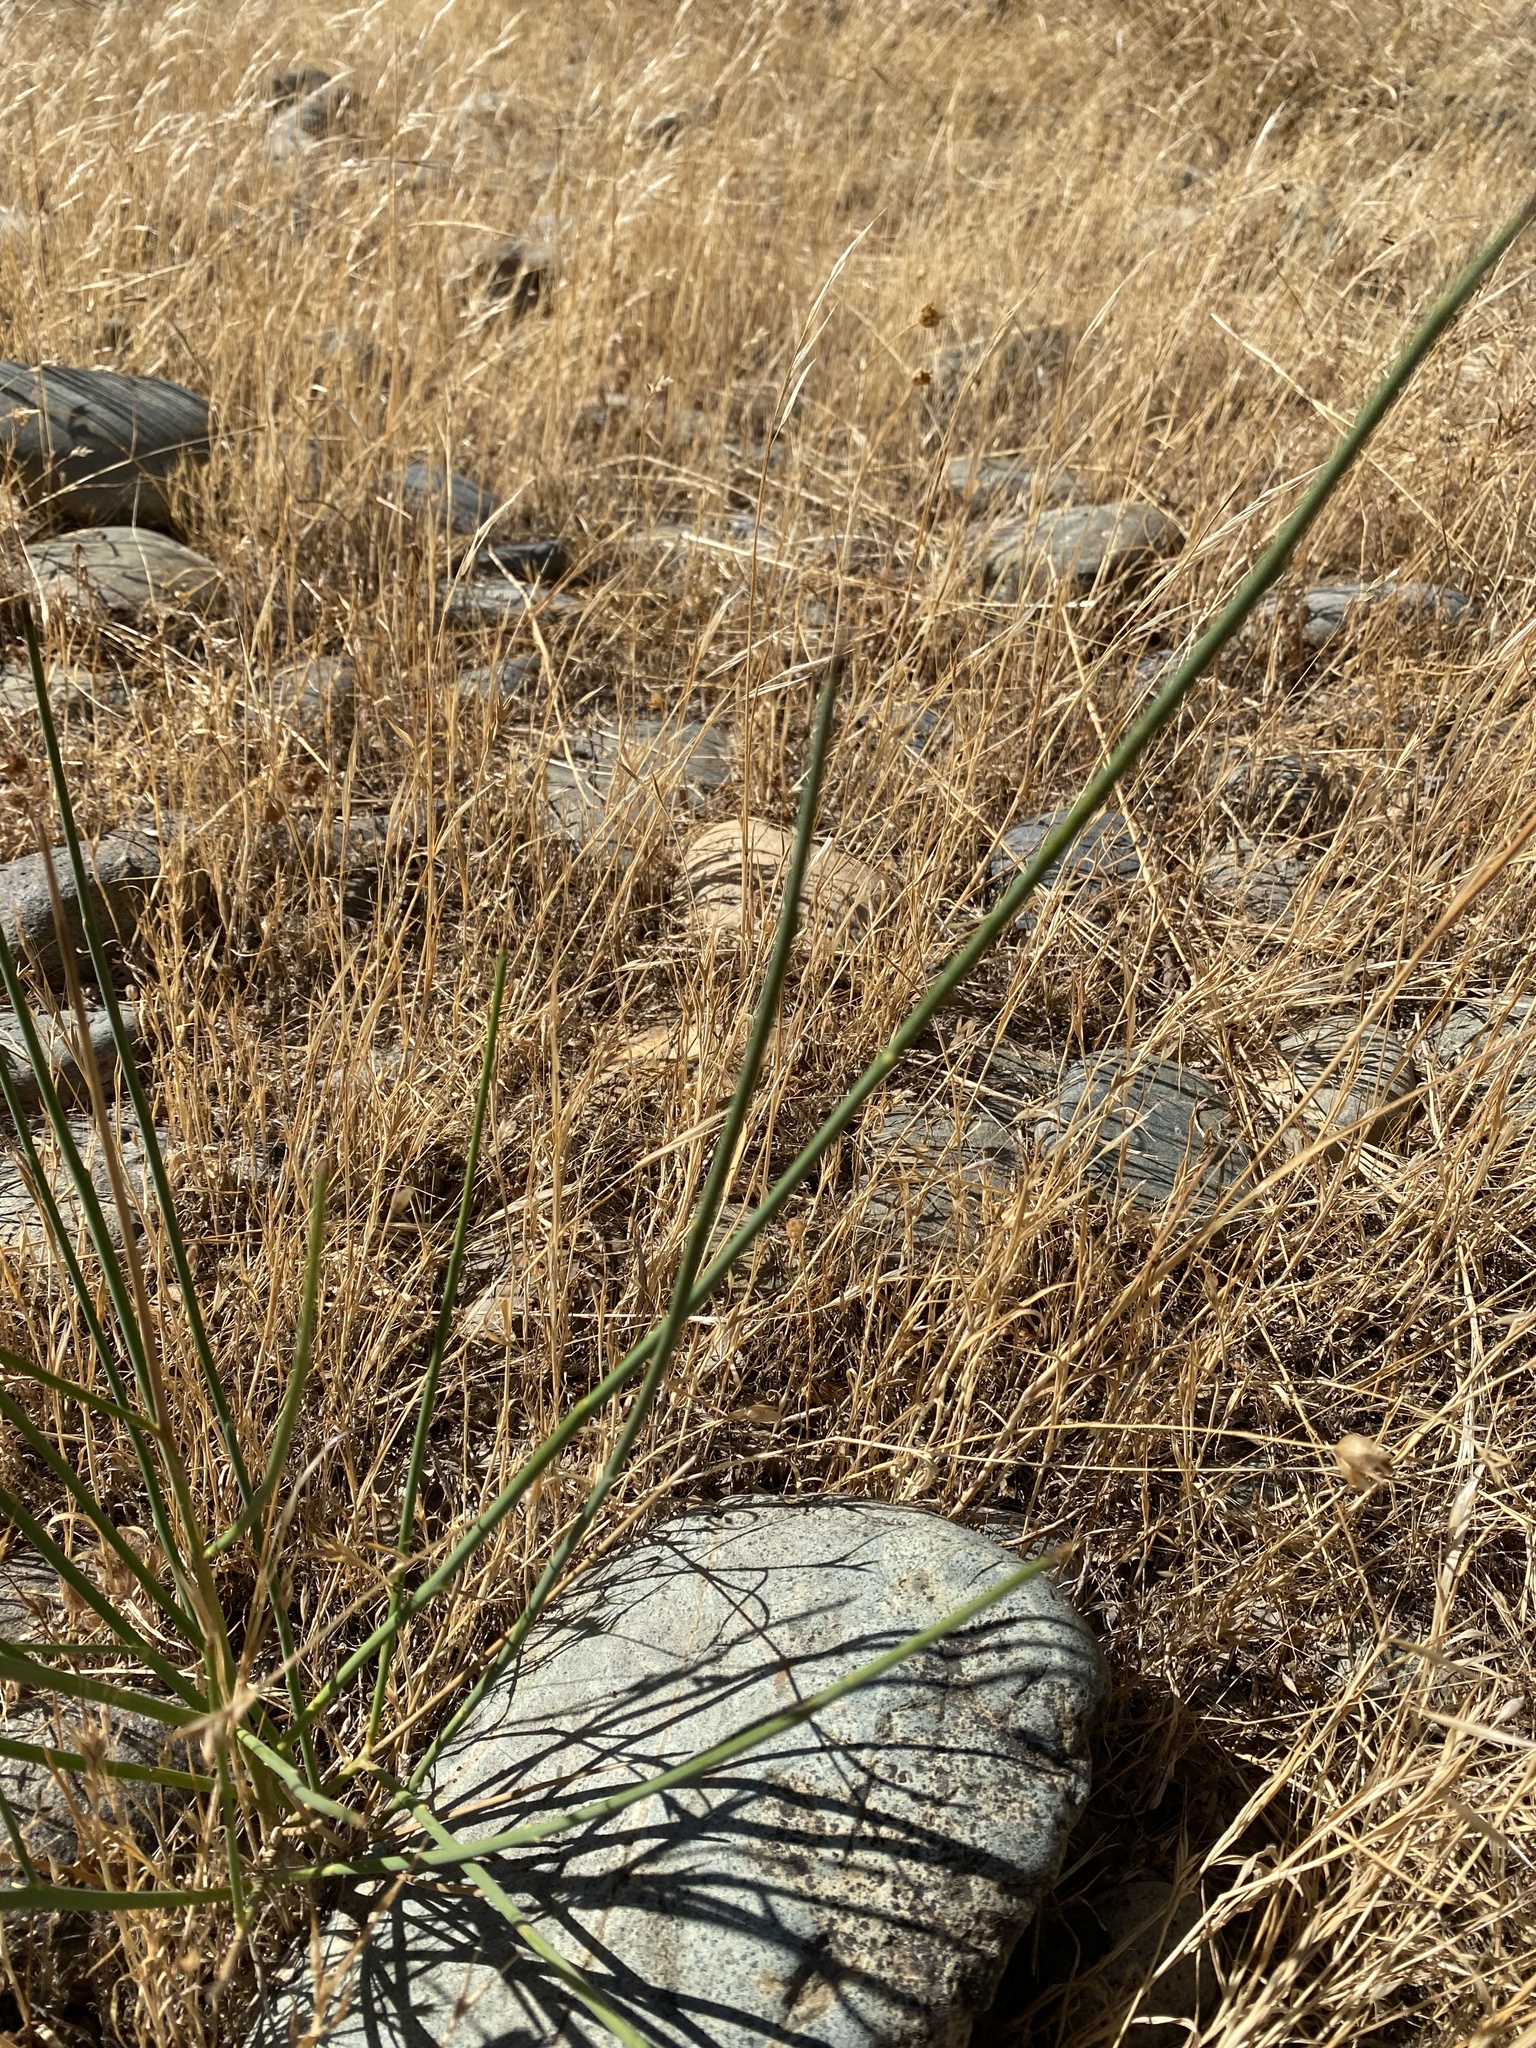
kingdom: Plantae
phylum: Tracheophyta
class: Magnoliopsida
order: Fabales
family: Fabaceae
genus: Spartium
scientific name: Spartium junceum
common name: Spanish broom
